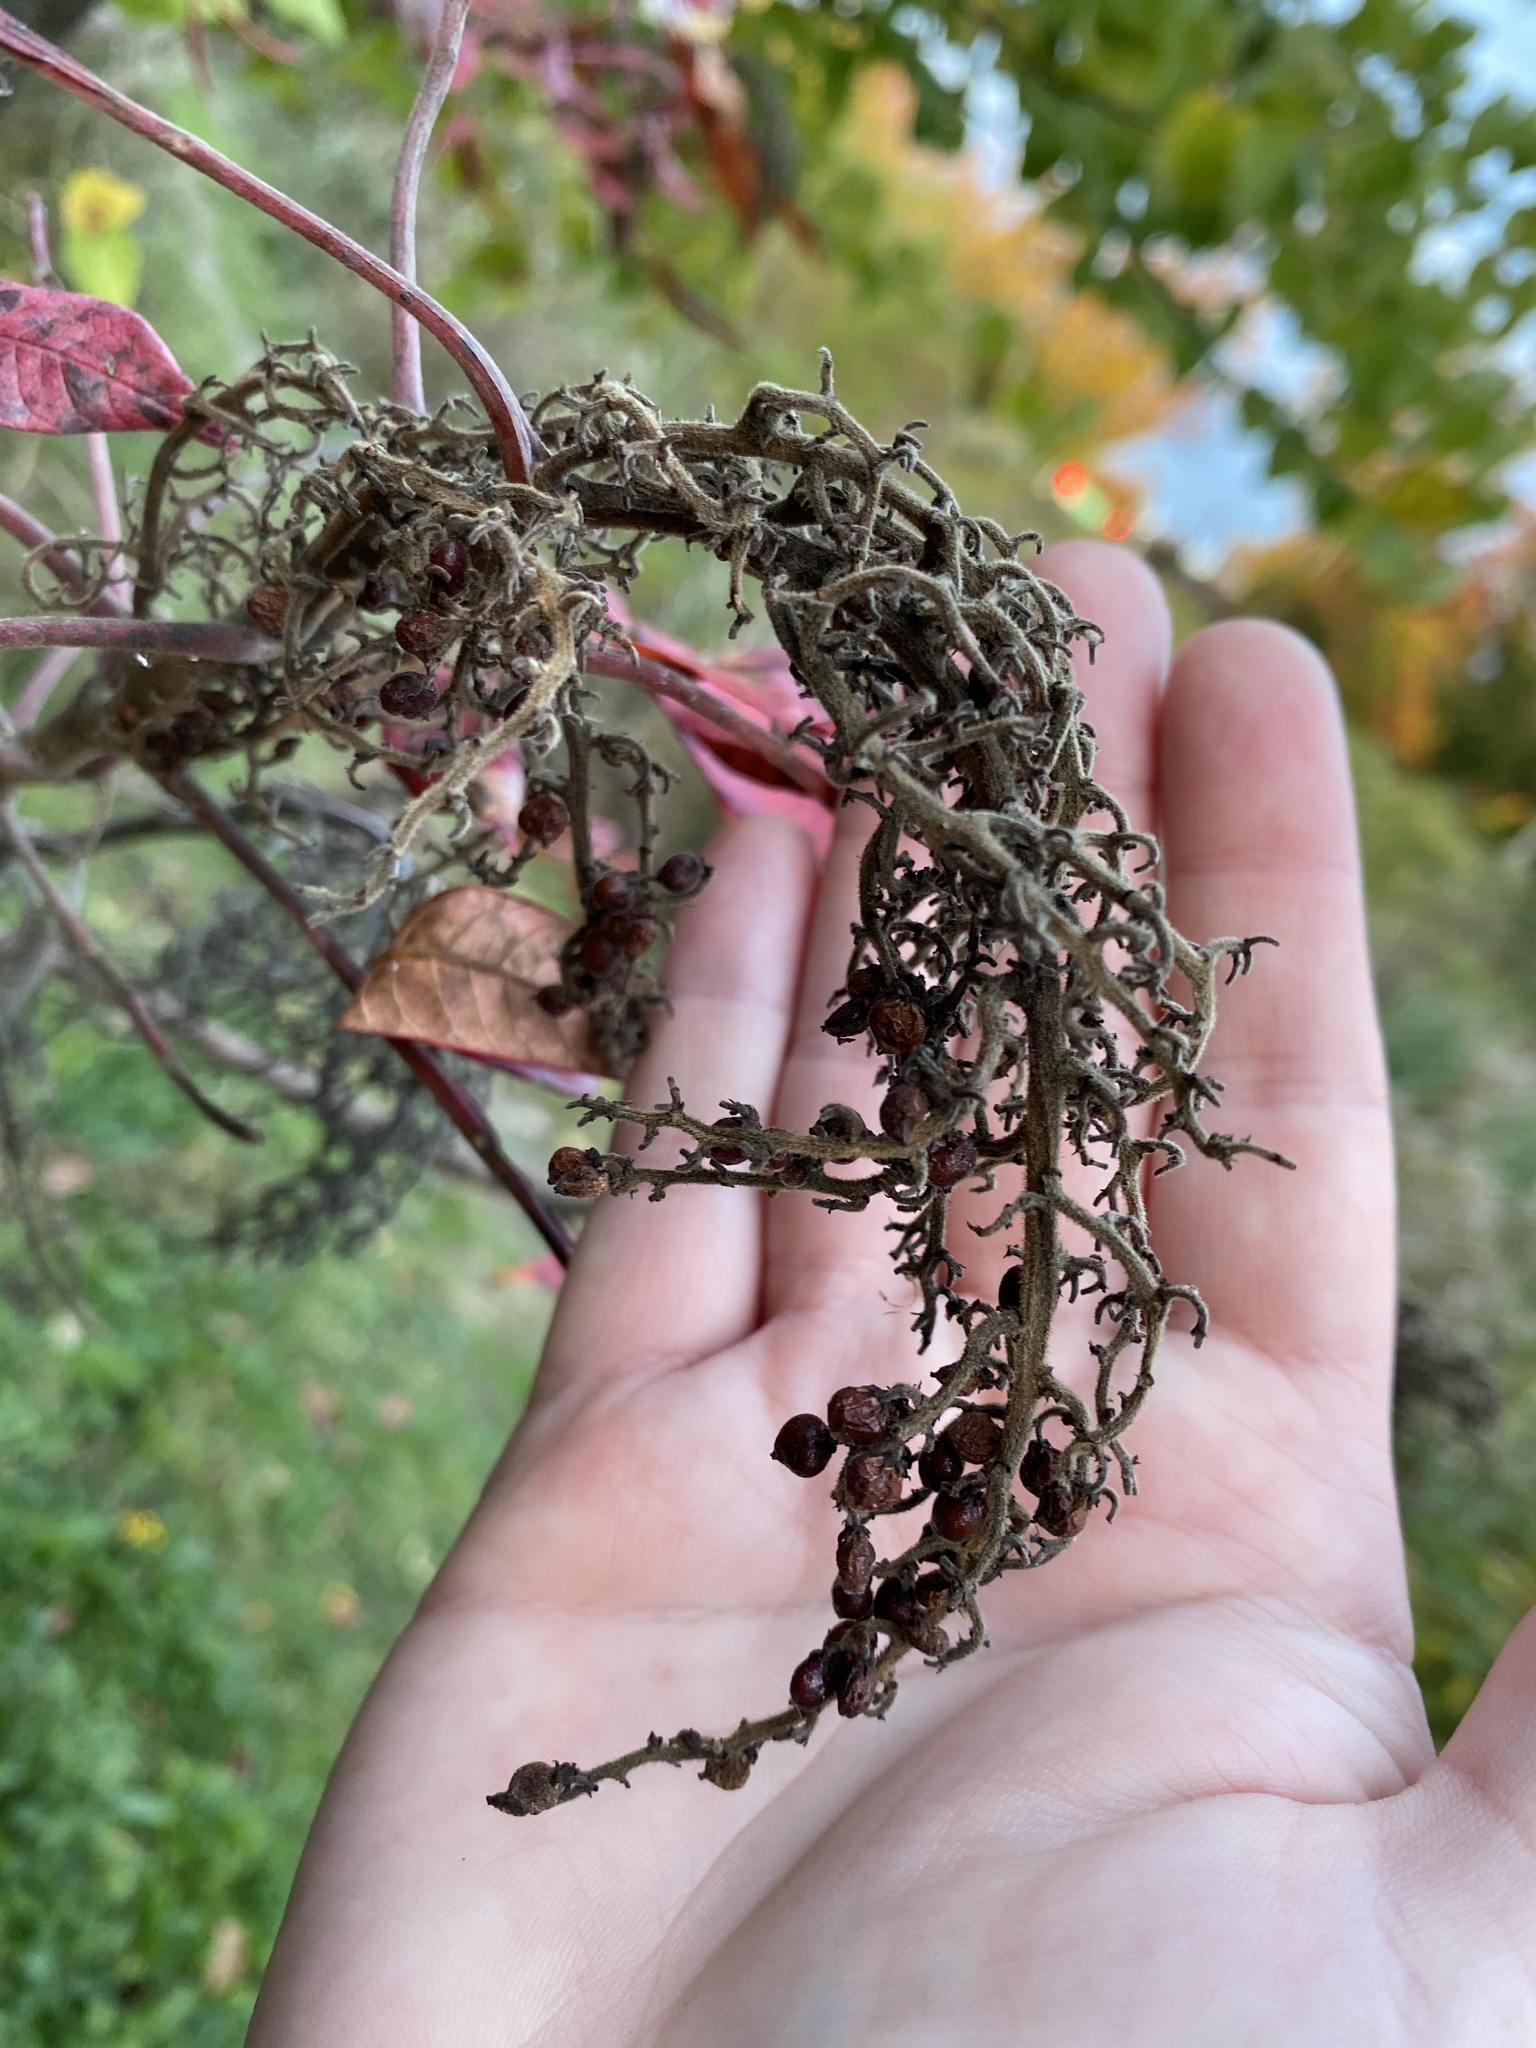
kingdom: Plantae
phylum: Tracheophyta
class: Magnoliopsida
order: Sapindales
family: Anacardiaceae
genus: Rhus
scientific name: Rhus copallina
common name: Shining sumac
